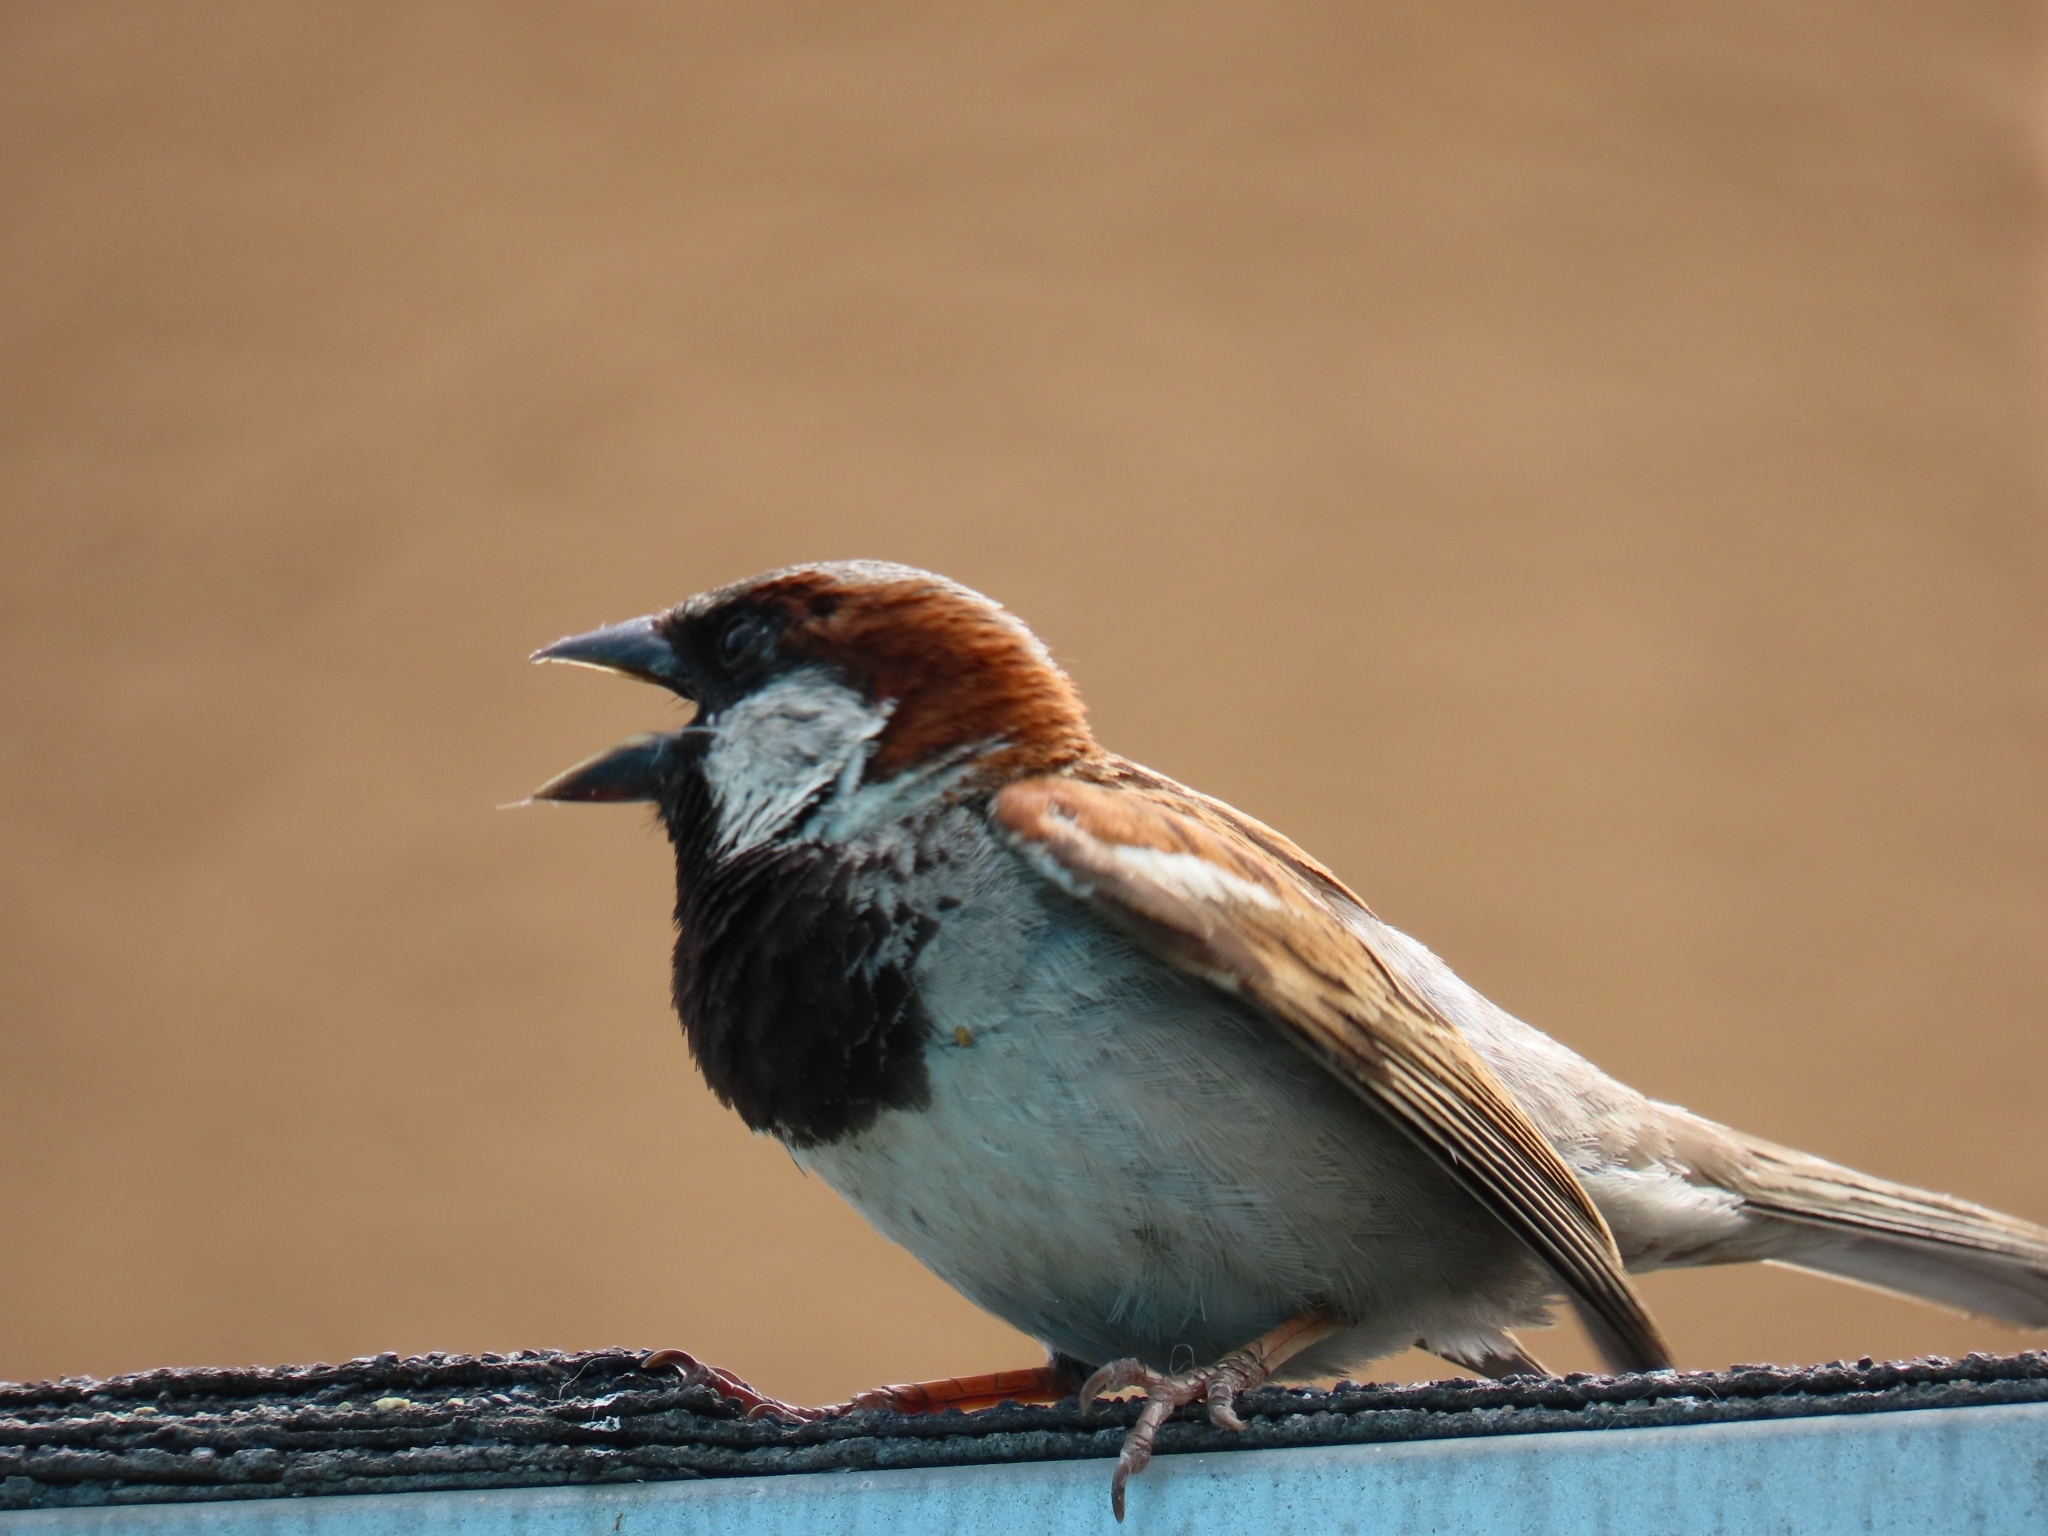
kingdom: Animalia
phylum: Chordata
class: Aves
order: Passeriformes
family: Passeridae
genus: Passer
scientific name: Passer domesticus
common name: House sparrow
